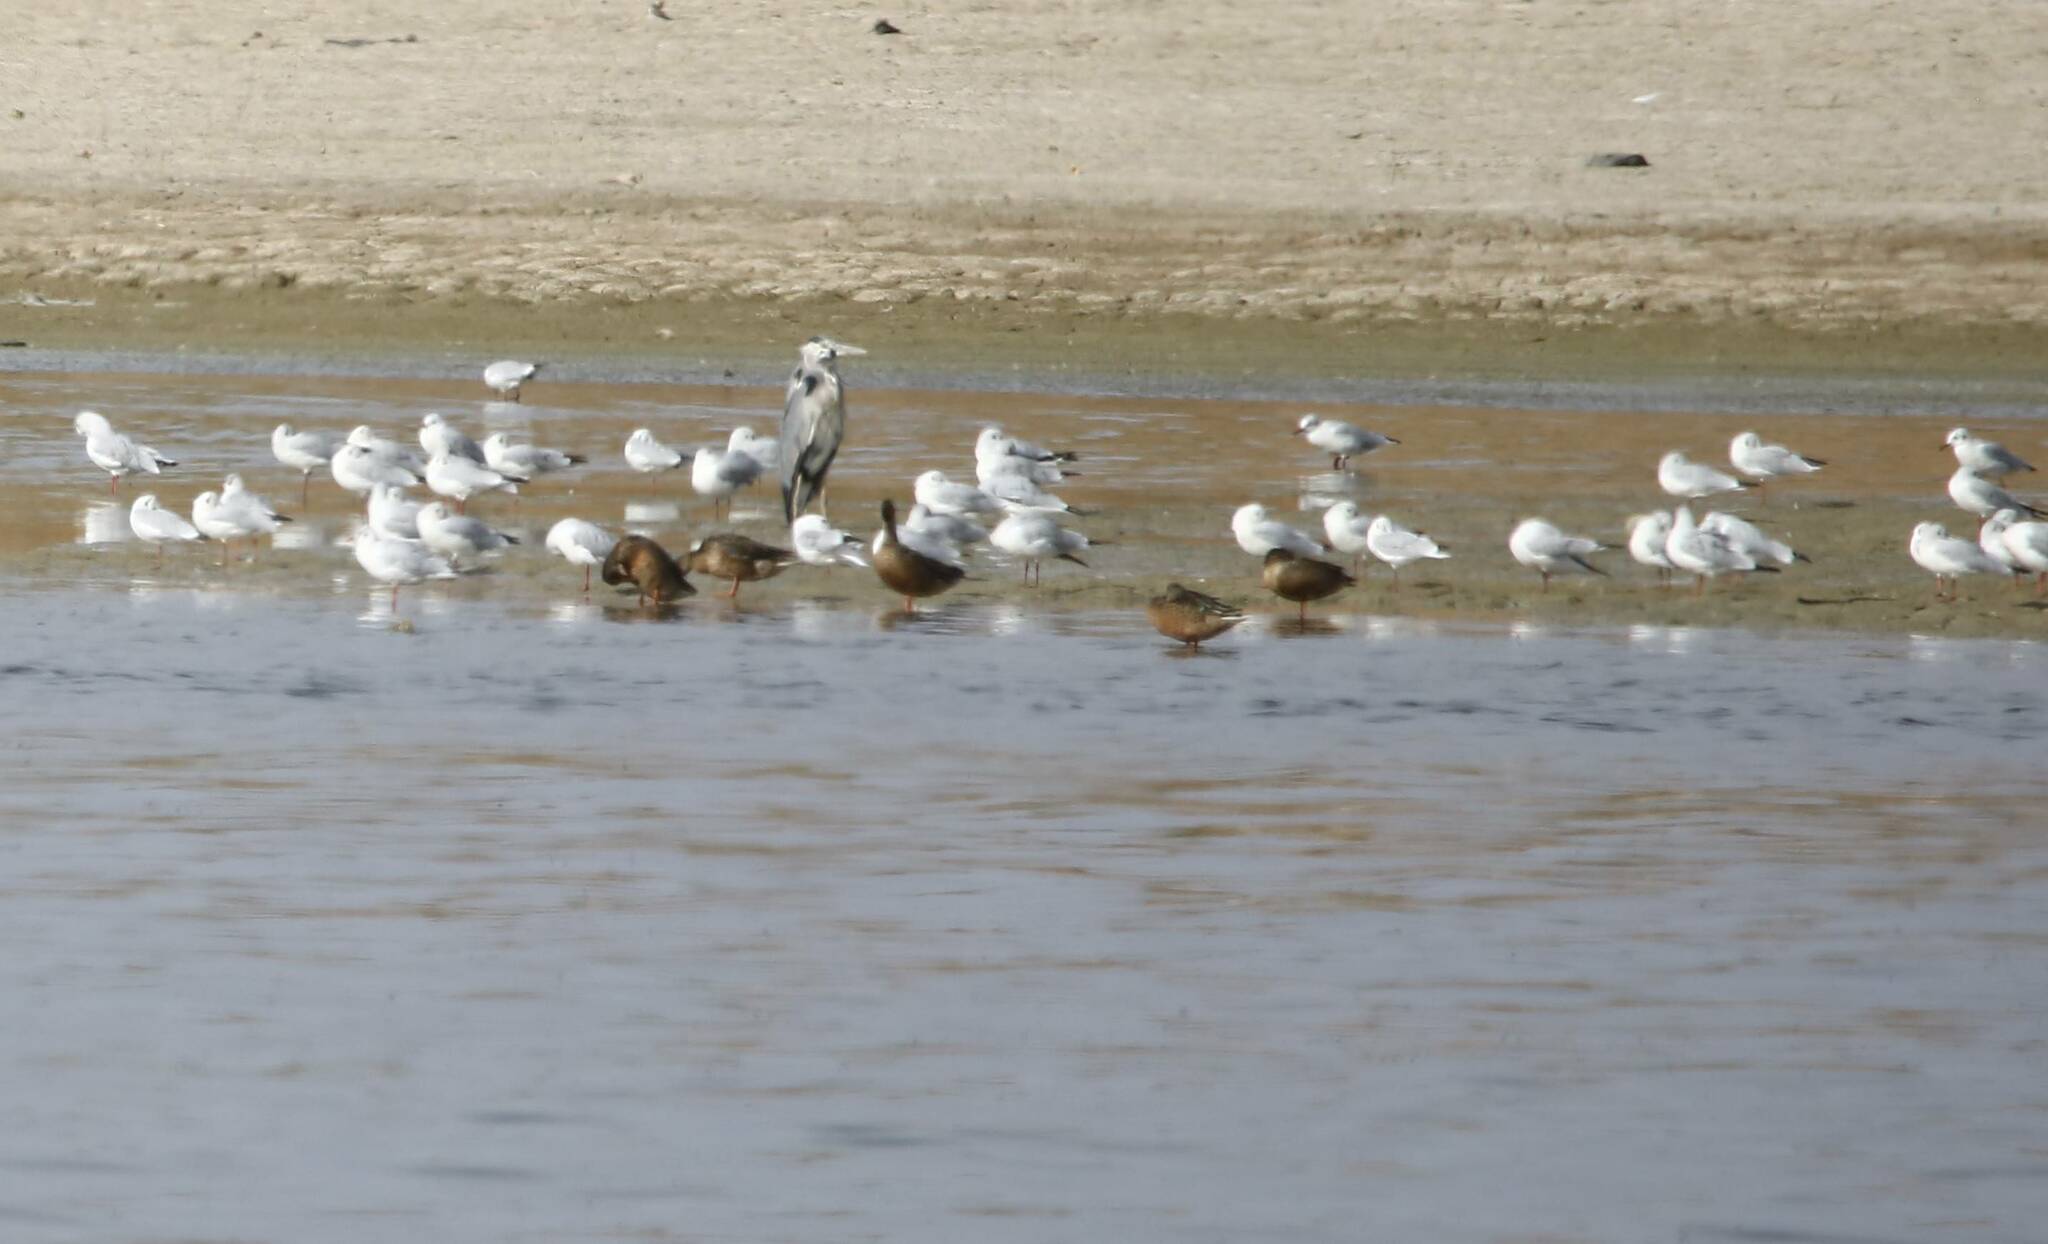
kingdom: Animalia
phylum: Chordata
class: Aves
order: Charadriiformes
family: Laridae
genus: Chroicocephalus
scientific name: Chroicocephalus ridibundus
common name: Black-headed gull
